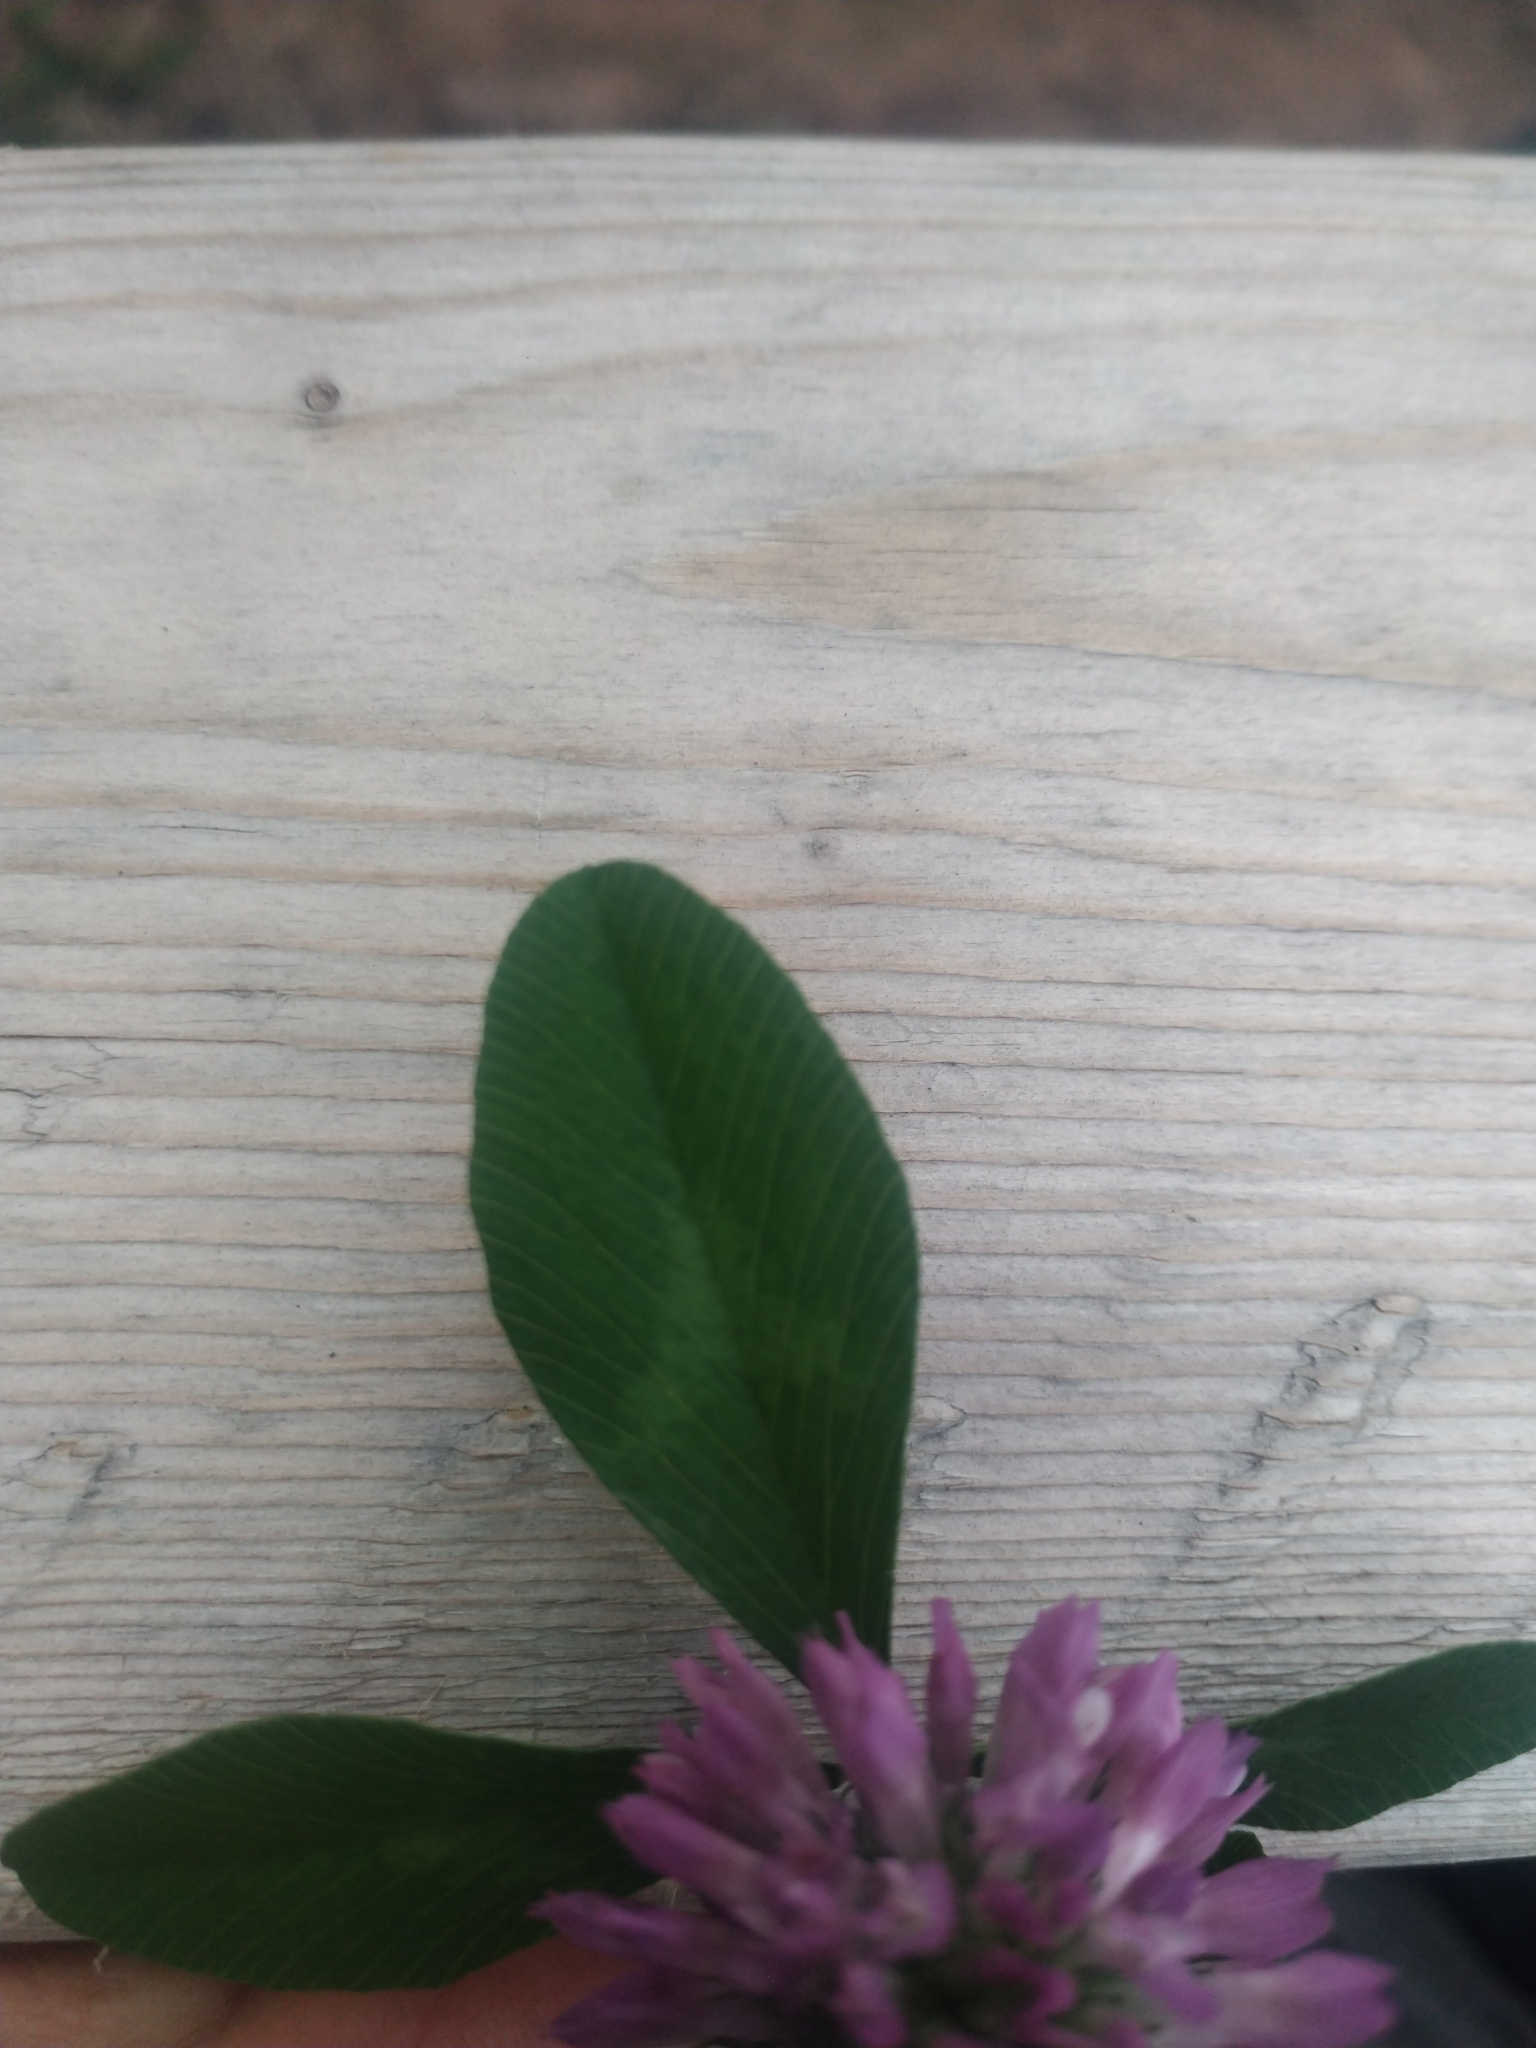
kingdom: Plantae
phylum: Tracheophyta
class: Magnoliopsida
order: Fabales
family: Fabaceae
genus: Trifolium
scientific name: Trifolium pratense
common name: Red clover
